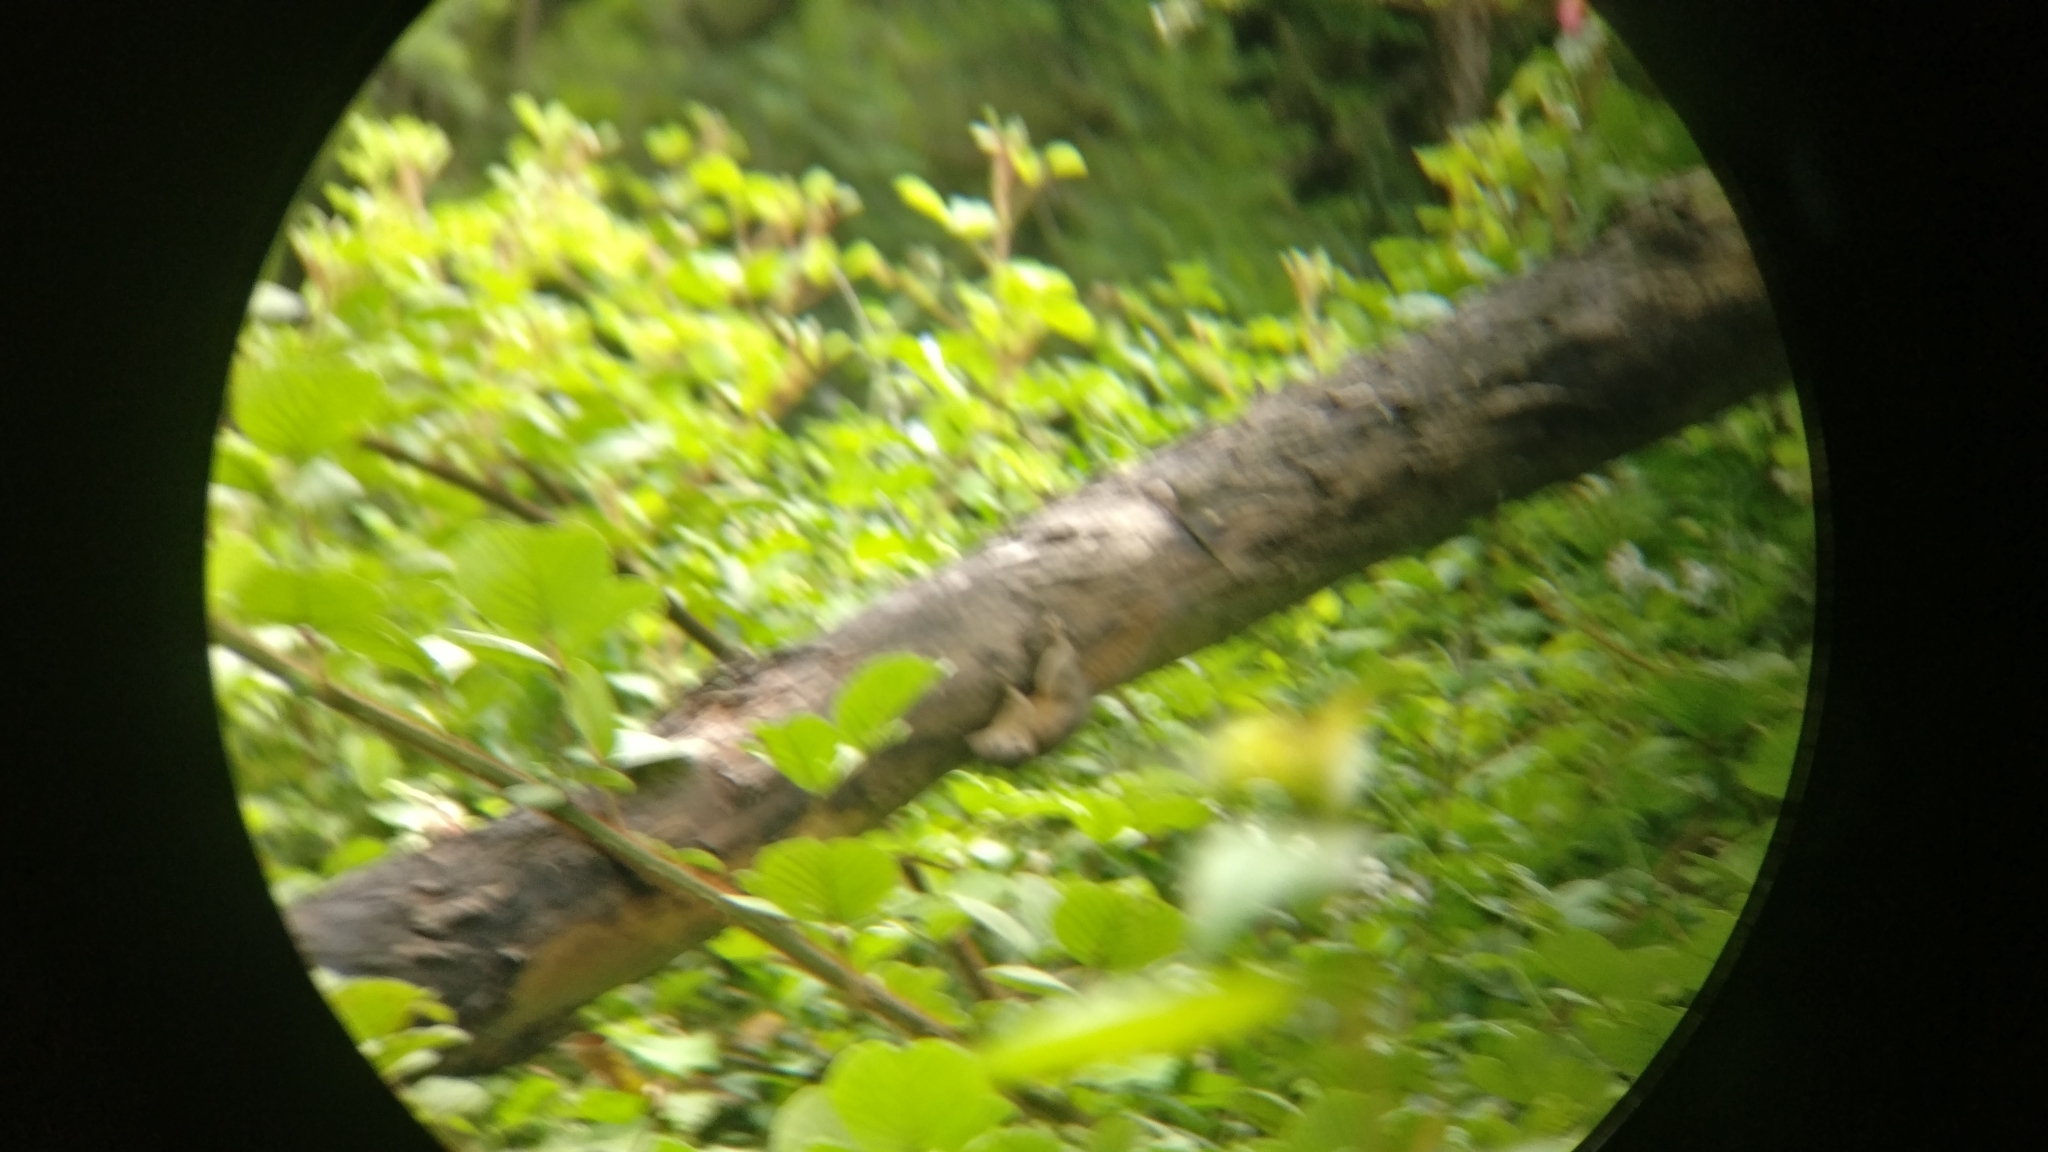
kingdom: Animalia
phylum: Chordata
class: Mammalia
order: Rodentia
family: Sciuridae
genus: Funambulus
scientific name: Funambulus sublineatus
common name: Dusky palm squirrel
